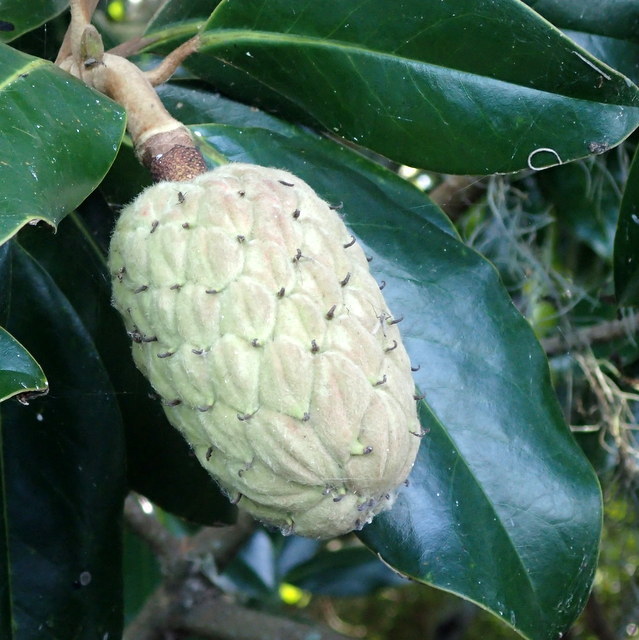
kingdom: Plantae
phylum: Tracheophyta
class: Magnoliopsida
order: Magnoliales
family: Magnoliaceae
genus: Magnolia
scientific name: Magnolia grandiflora
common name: Southern magnolia
